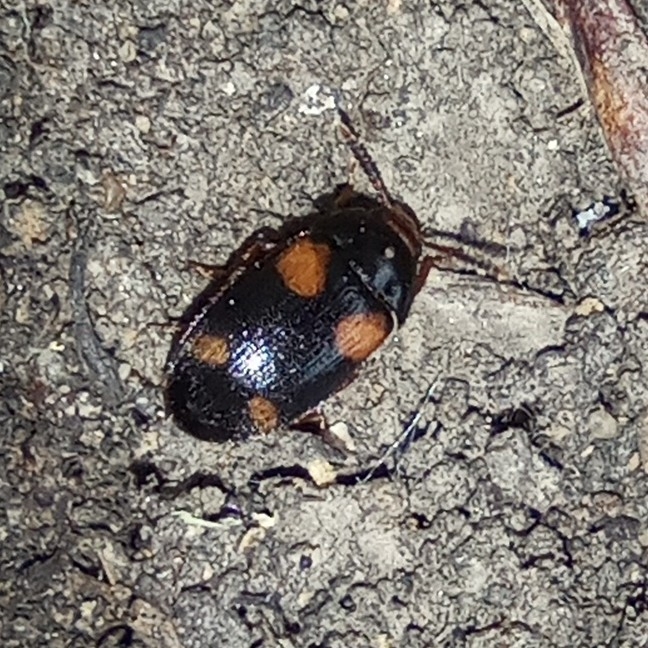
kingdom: Animalia
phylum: Arthropoda
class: Insecta
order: Coleoptera
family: Mycetophagidae
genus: Mycetophagus
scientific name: Mycetophagus quadripustulatus
